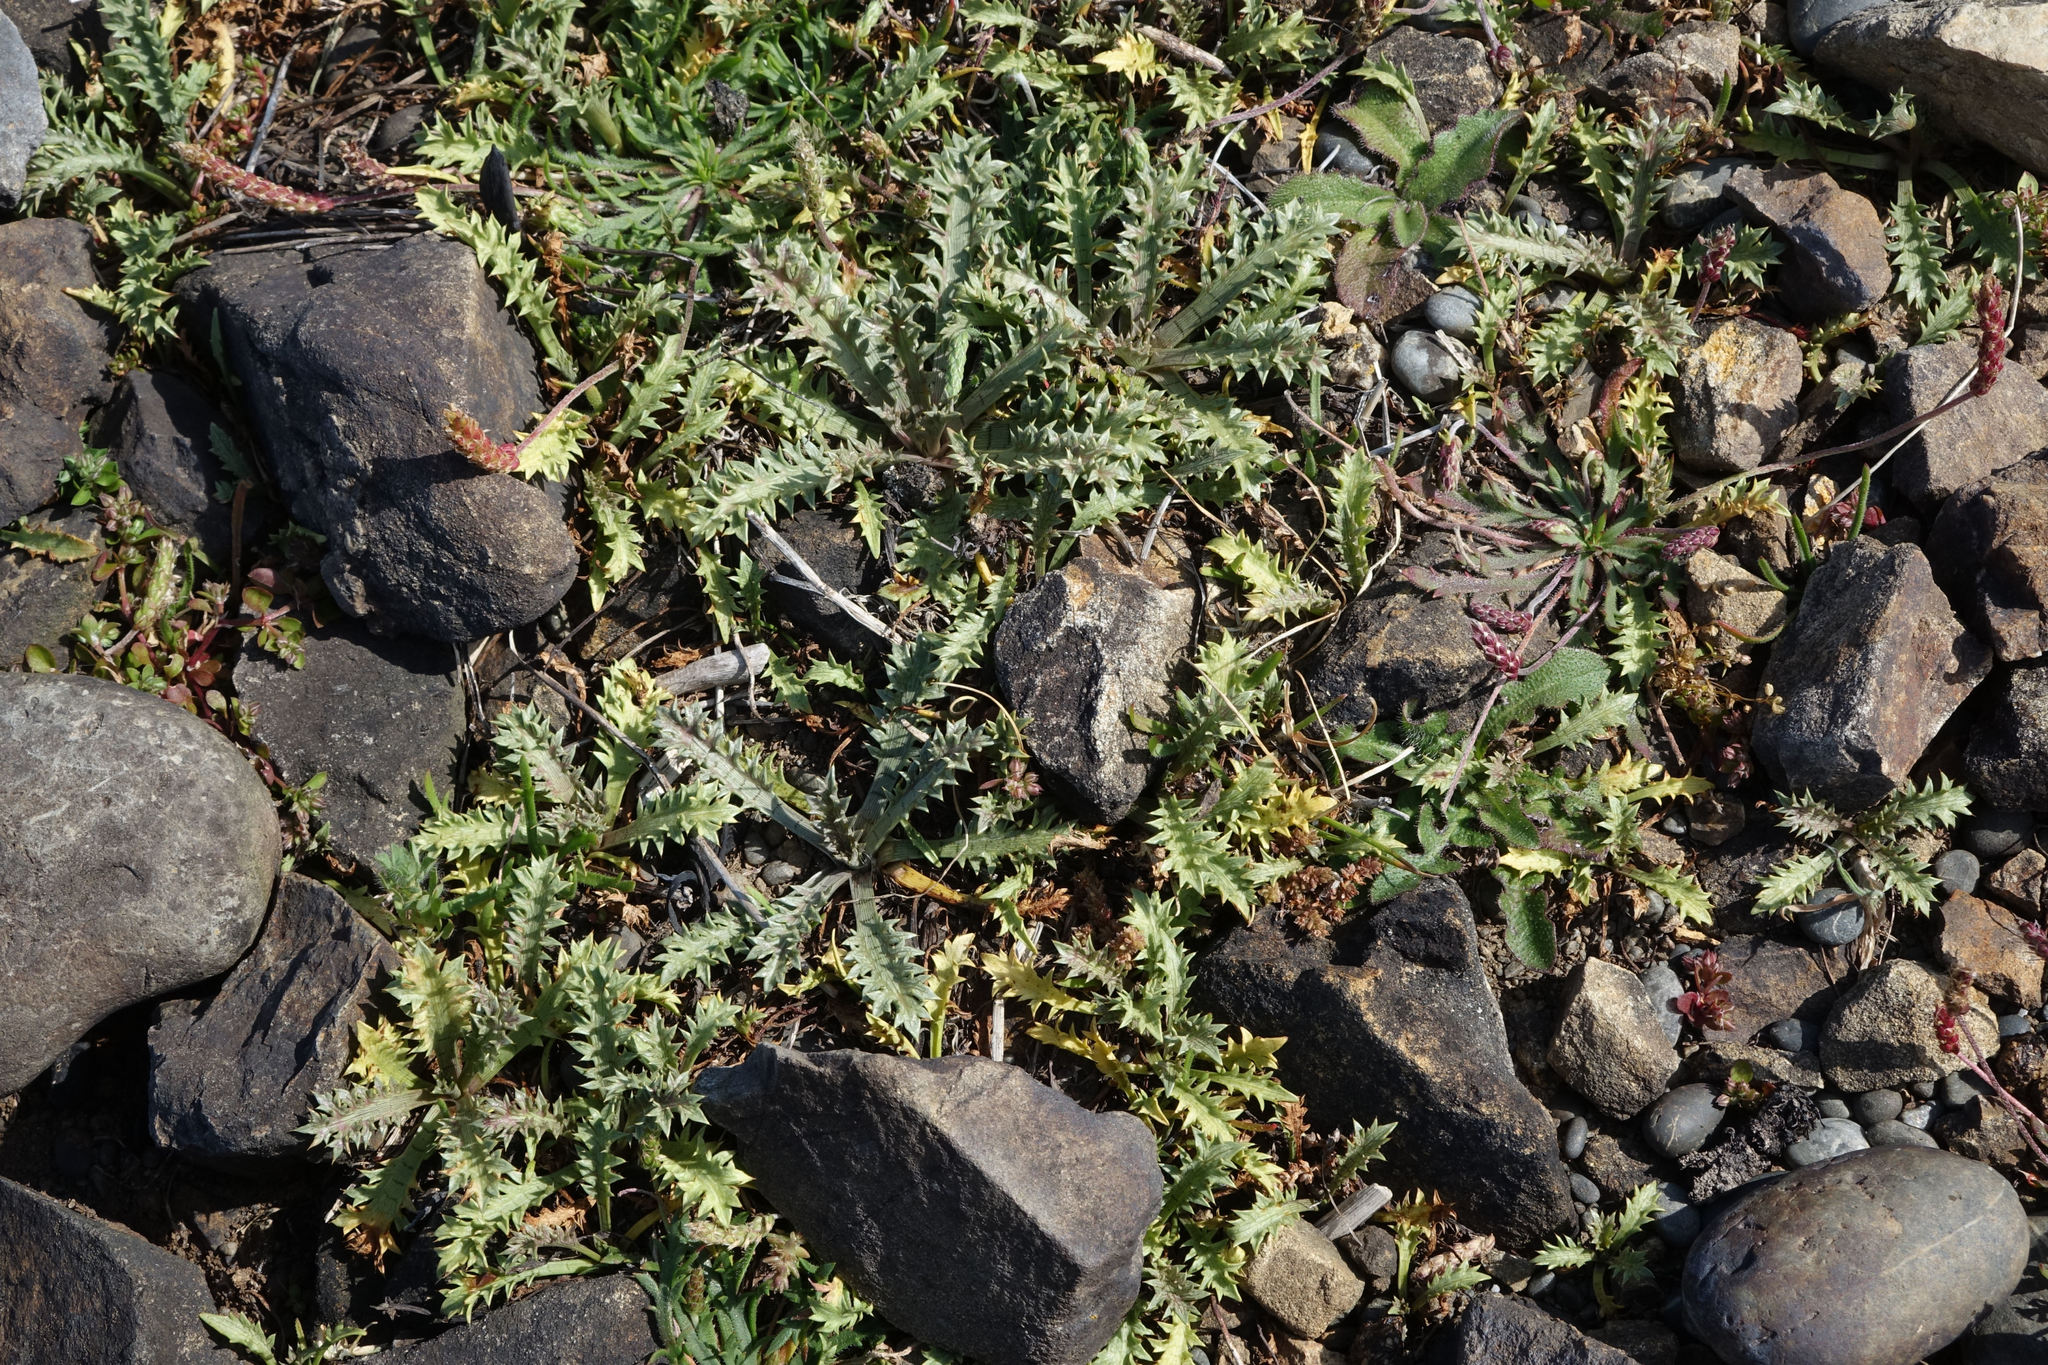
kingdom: Plantae
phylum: Tracheophyta
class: Magnoliopsida
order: Apiales
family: Apiaceae
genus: Eryngium
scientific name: Eryngium vesiculosum
